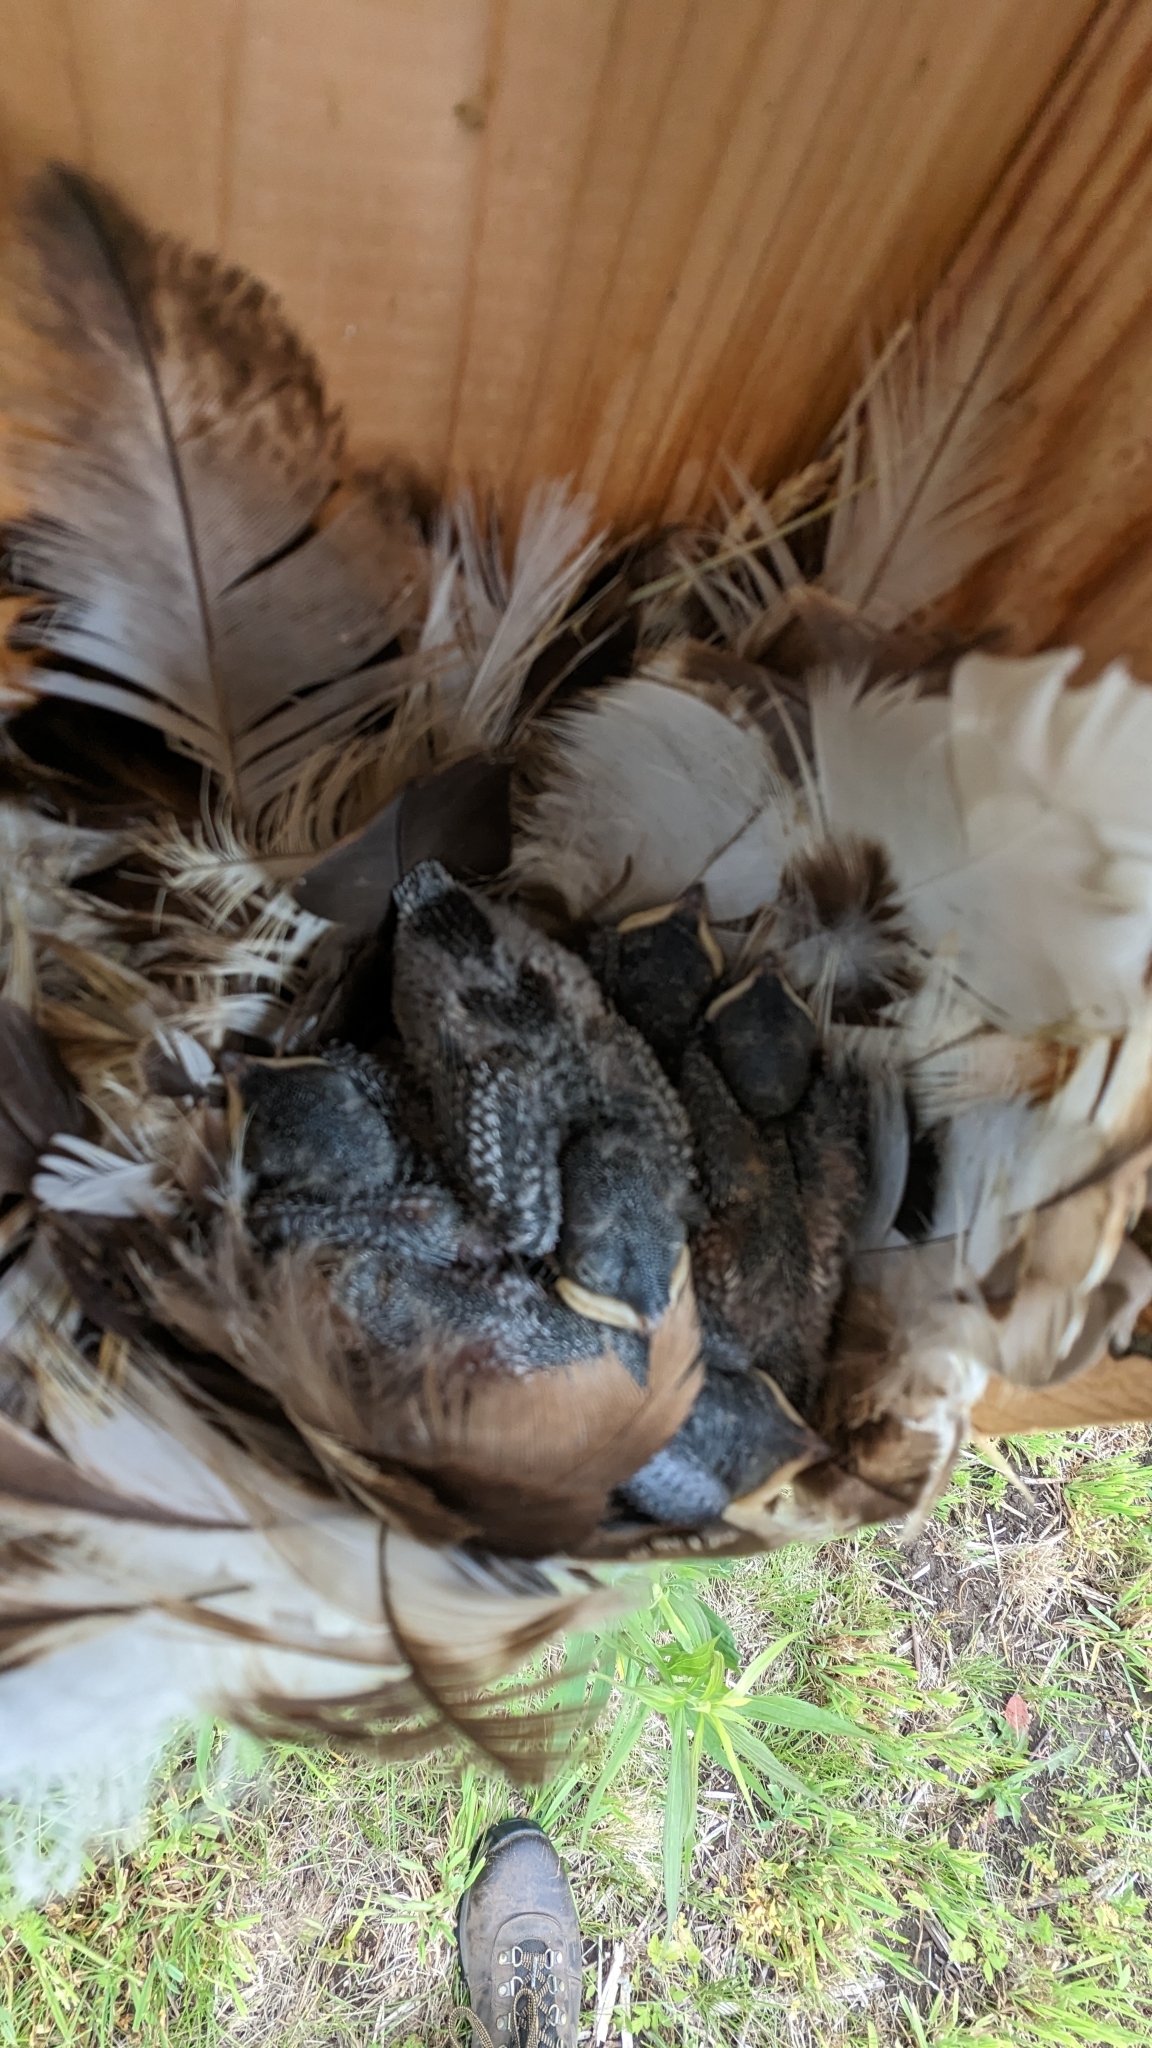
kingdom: Animalia
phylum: Chordata
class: Aves
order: Passeriformes
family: Hirundinidae
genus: Tachycineta
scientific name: Tachycineta bicolor
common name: Tree swallow
